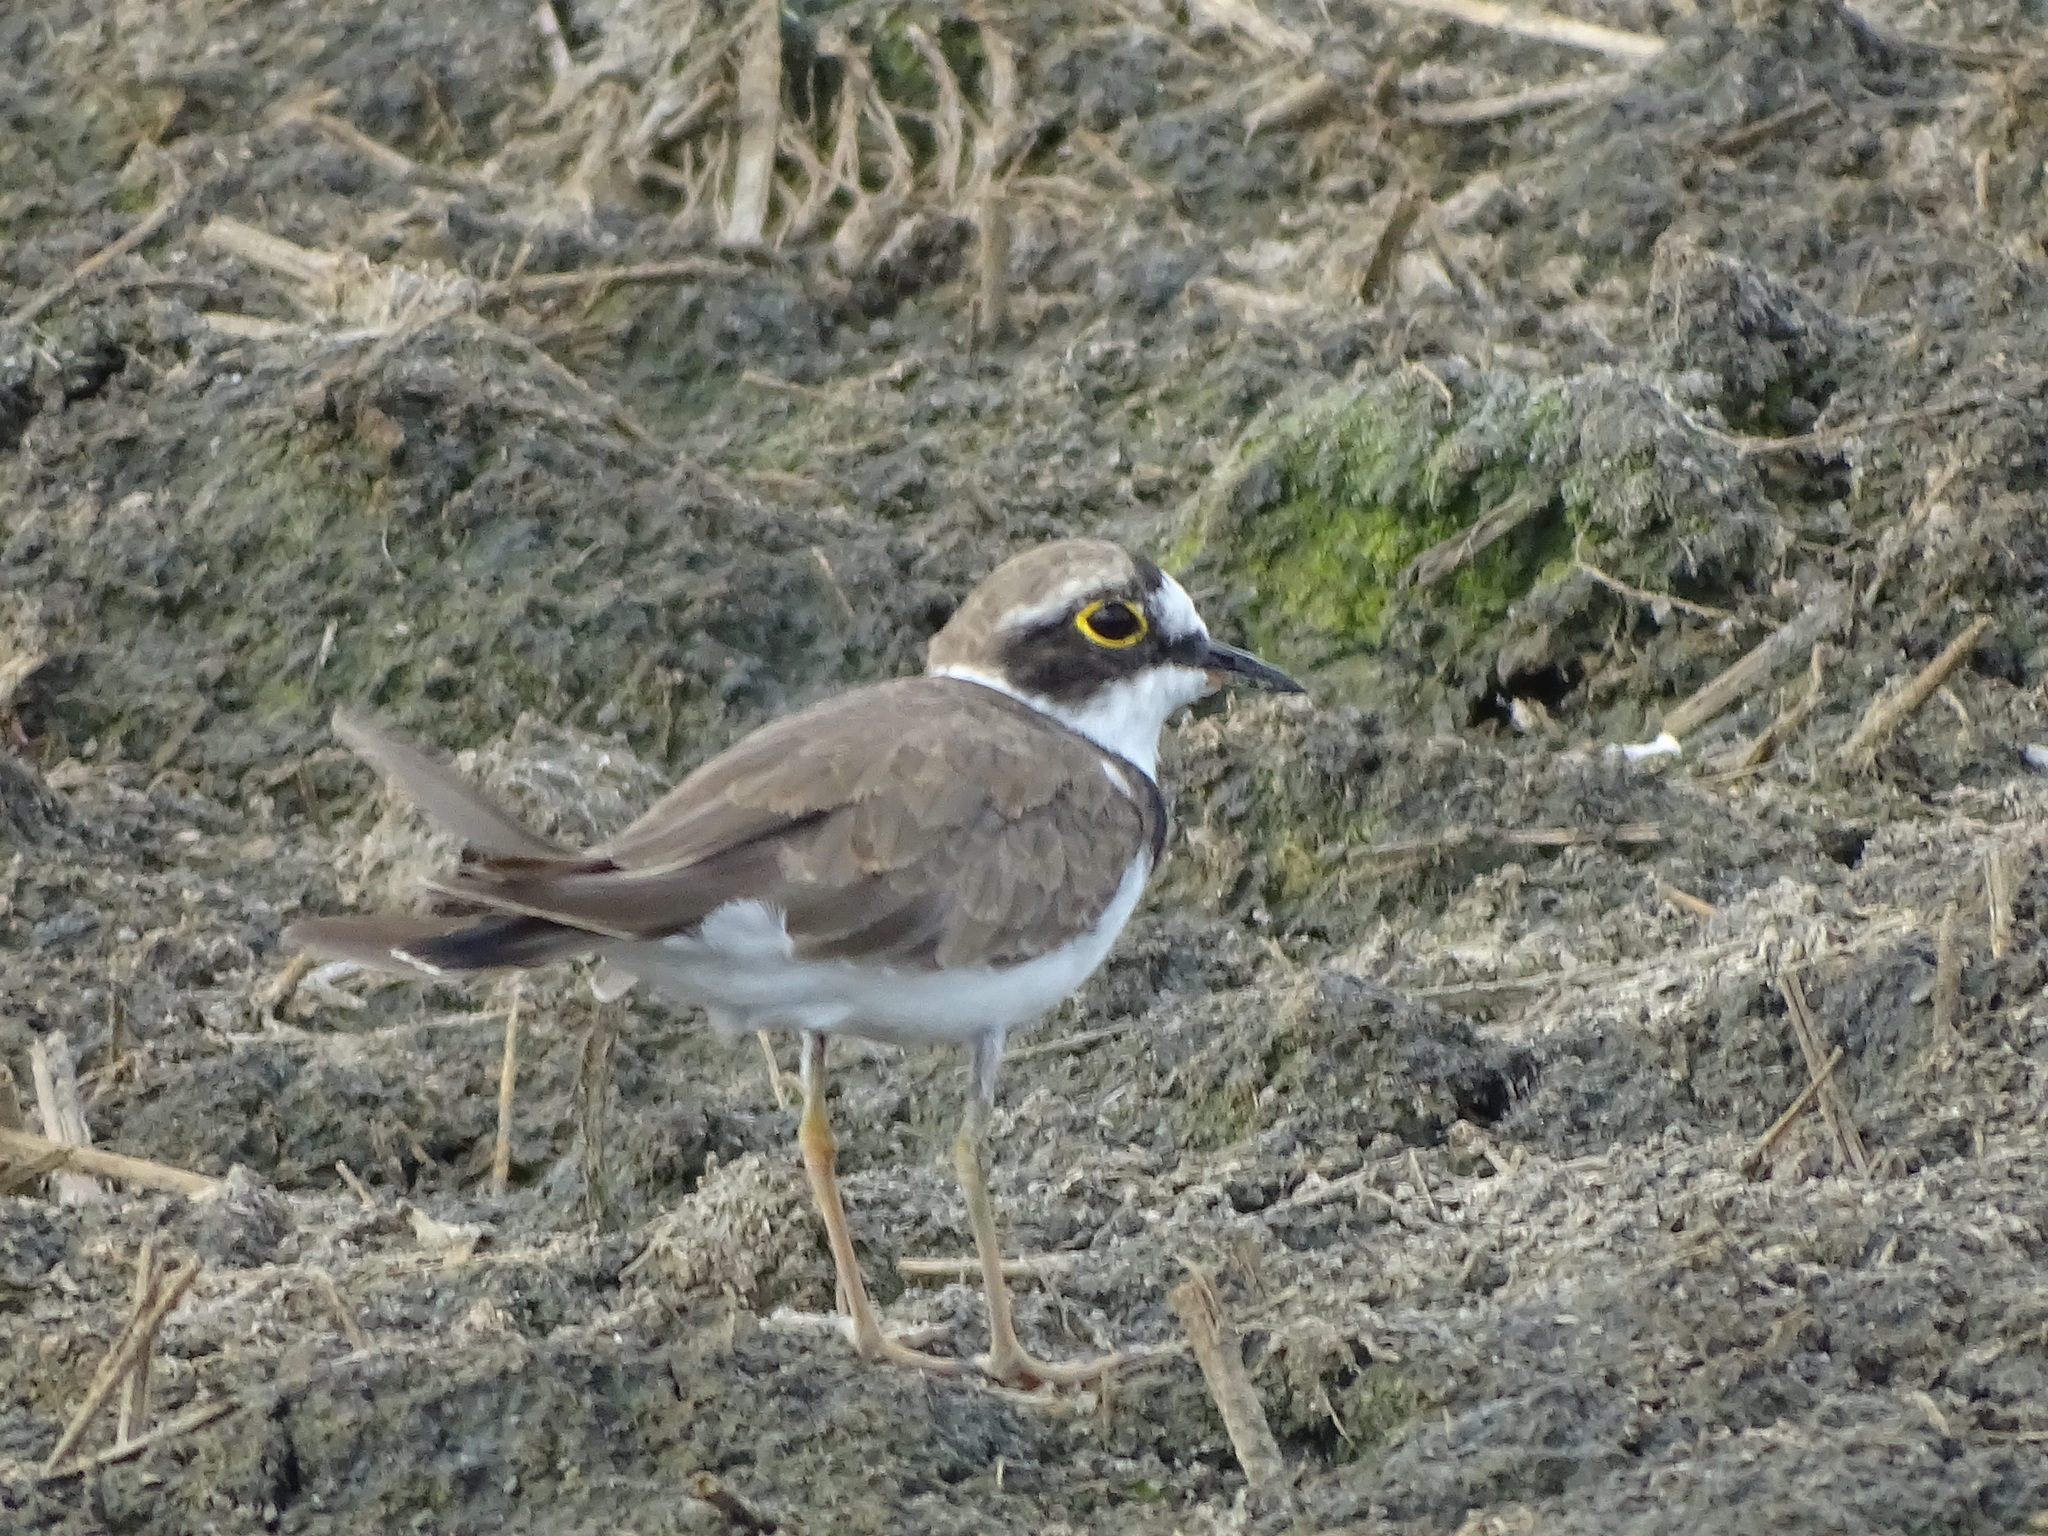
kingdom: Animalia
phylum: Chordata
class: Aves
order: Charadriiformes
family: Charadriidae
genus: Charadrius
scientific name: Charadrius dubius
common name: Little ringed plover
